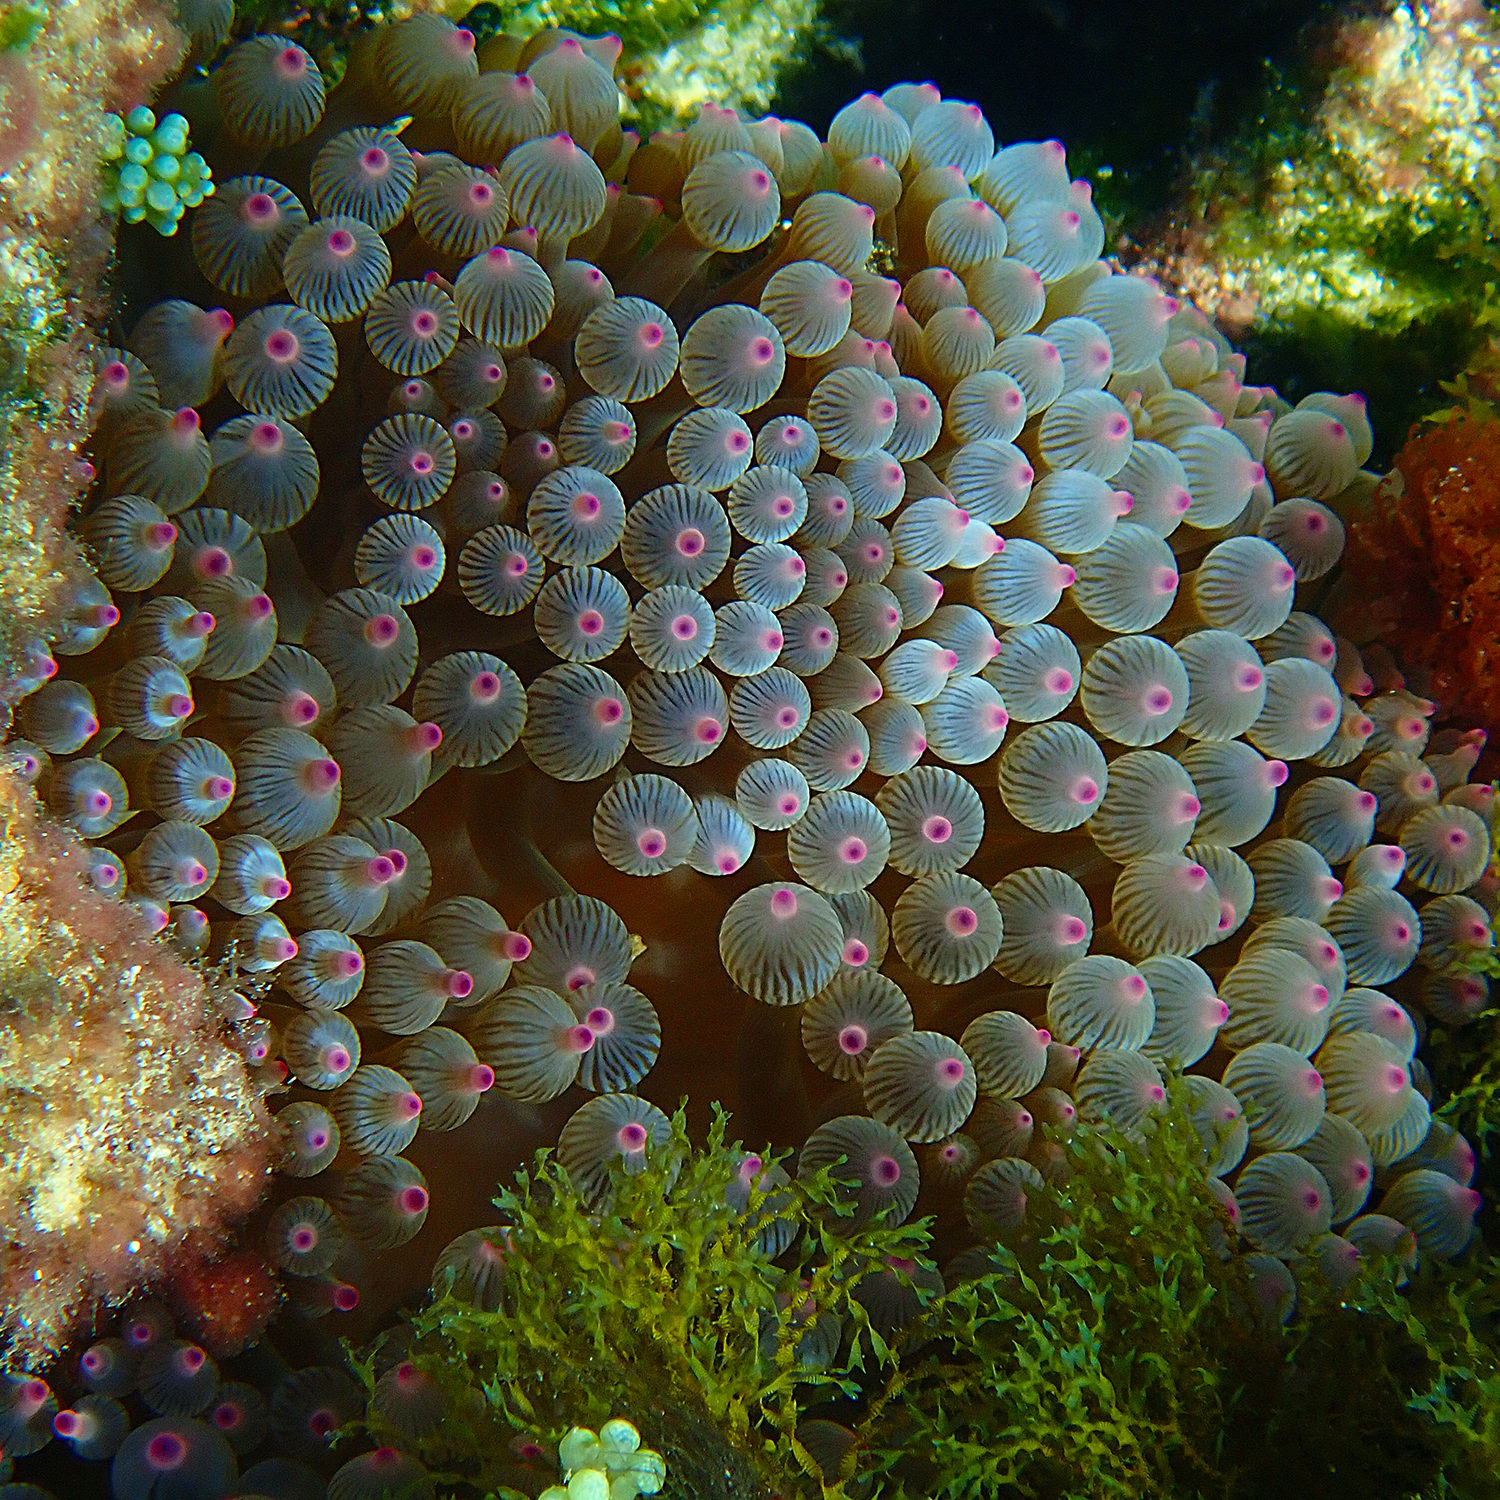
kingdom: Animalia
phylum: Cnidaria
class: Anthozoa
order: Actiniaria
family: Actiniidae
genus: Entacmaea
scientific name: Entacmaea quadricolor
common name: Bulb tentacle sea anemone
